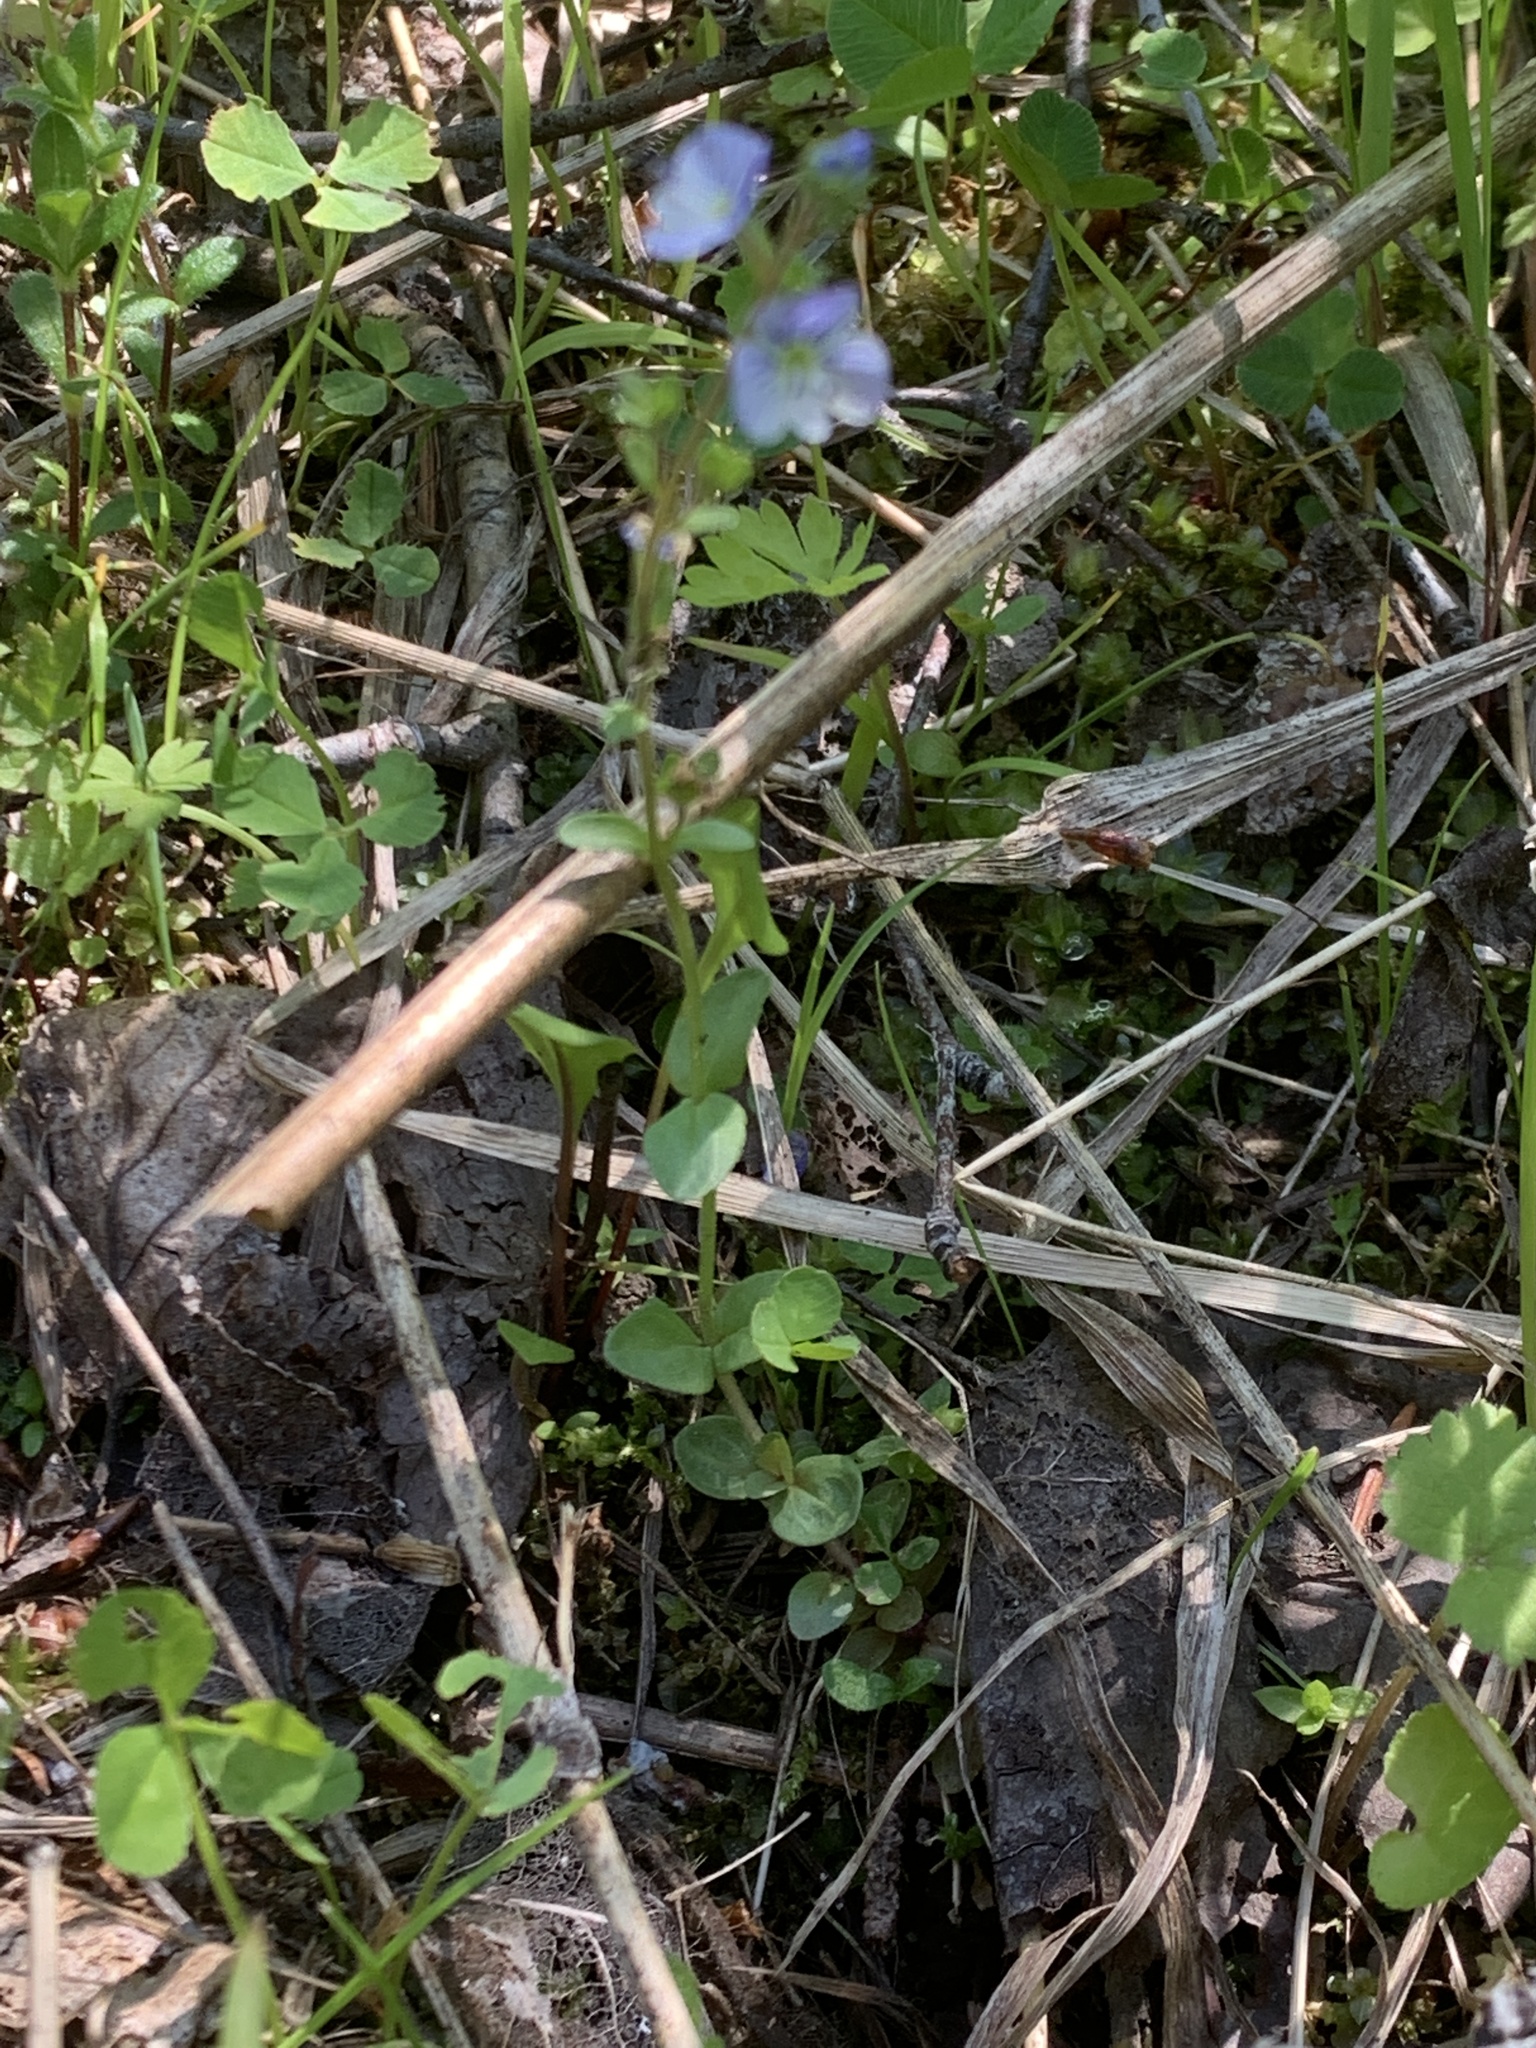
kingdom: Plantae
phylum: Tracheophyta
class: Magnoliopsida
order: Lamiales
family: Plantaginaceae
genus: Veronica
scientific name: Veronica serpyllifolia
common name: Thyme-leaved speedwell
